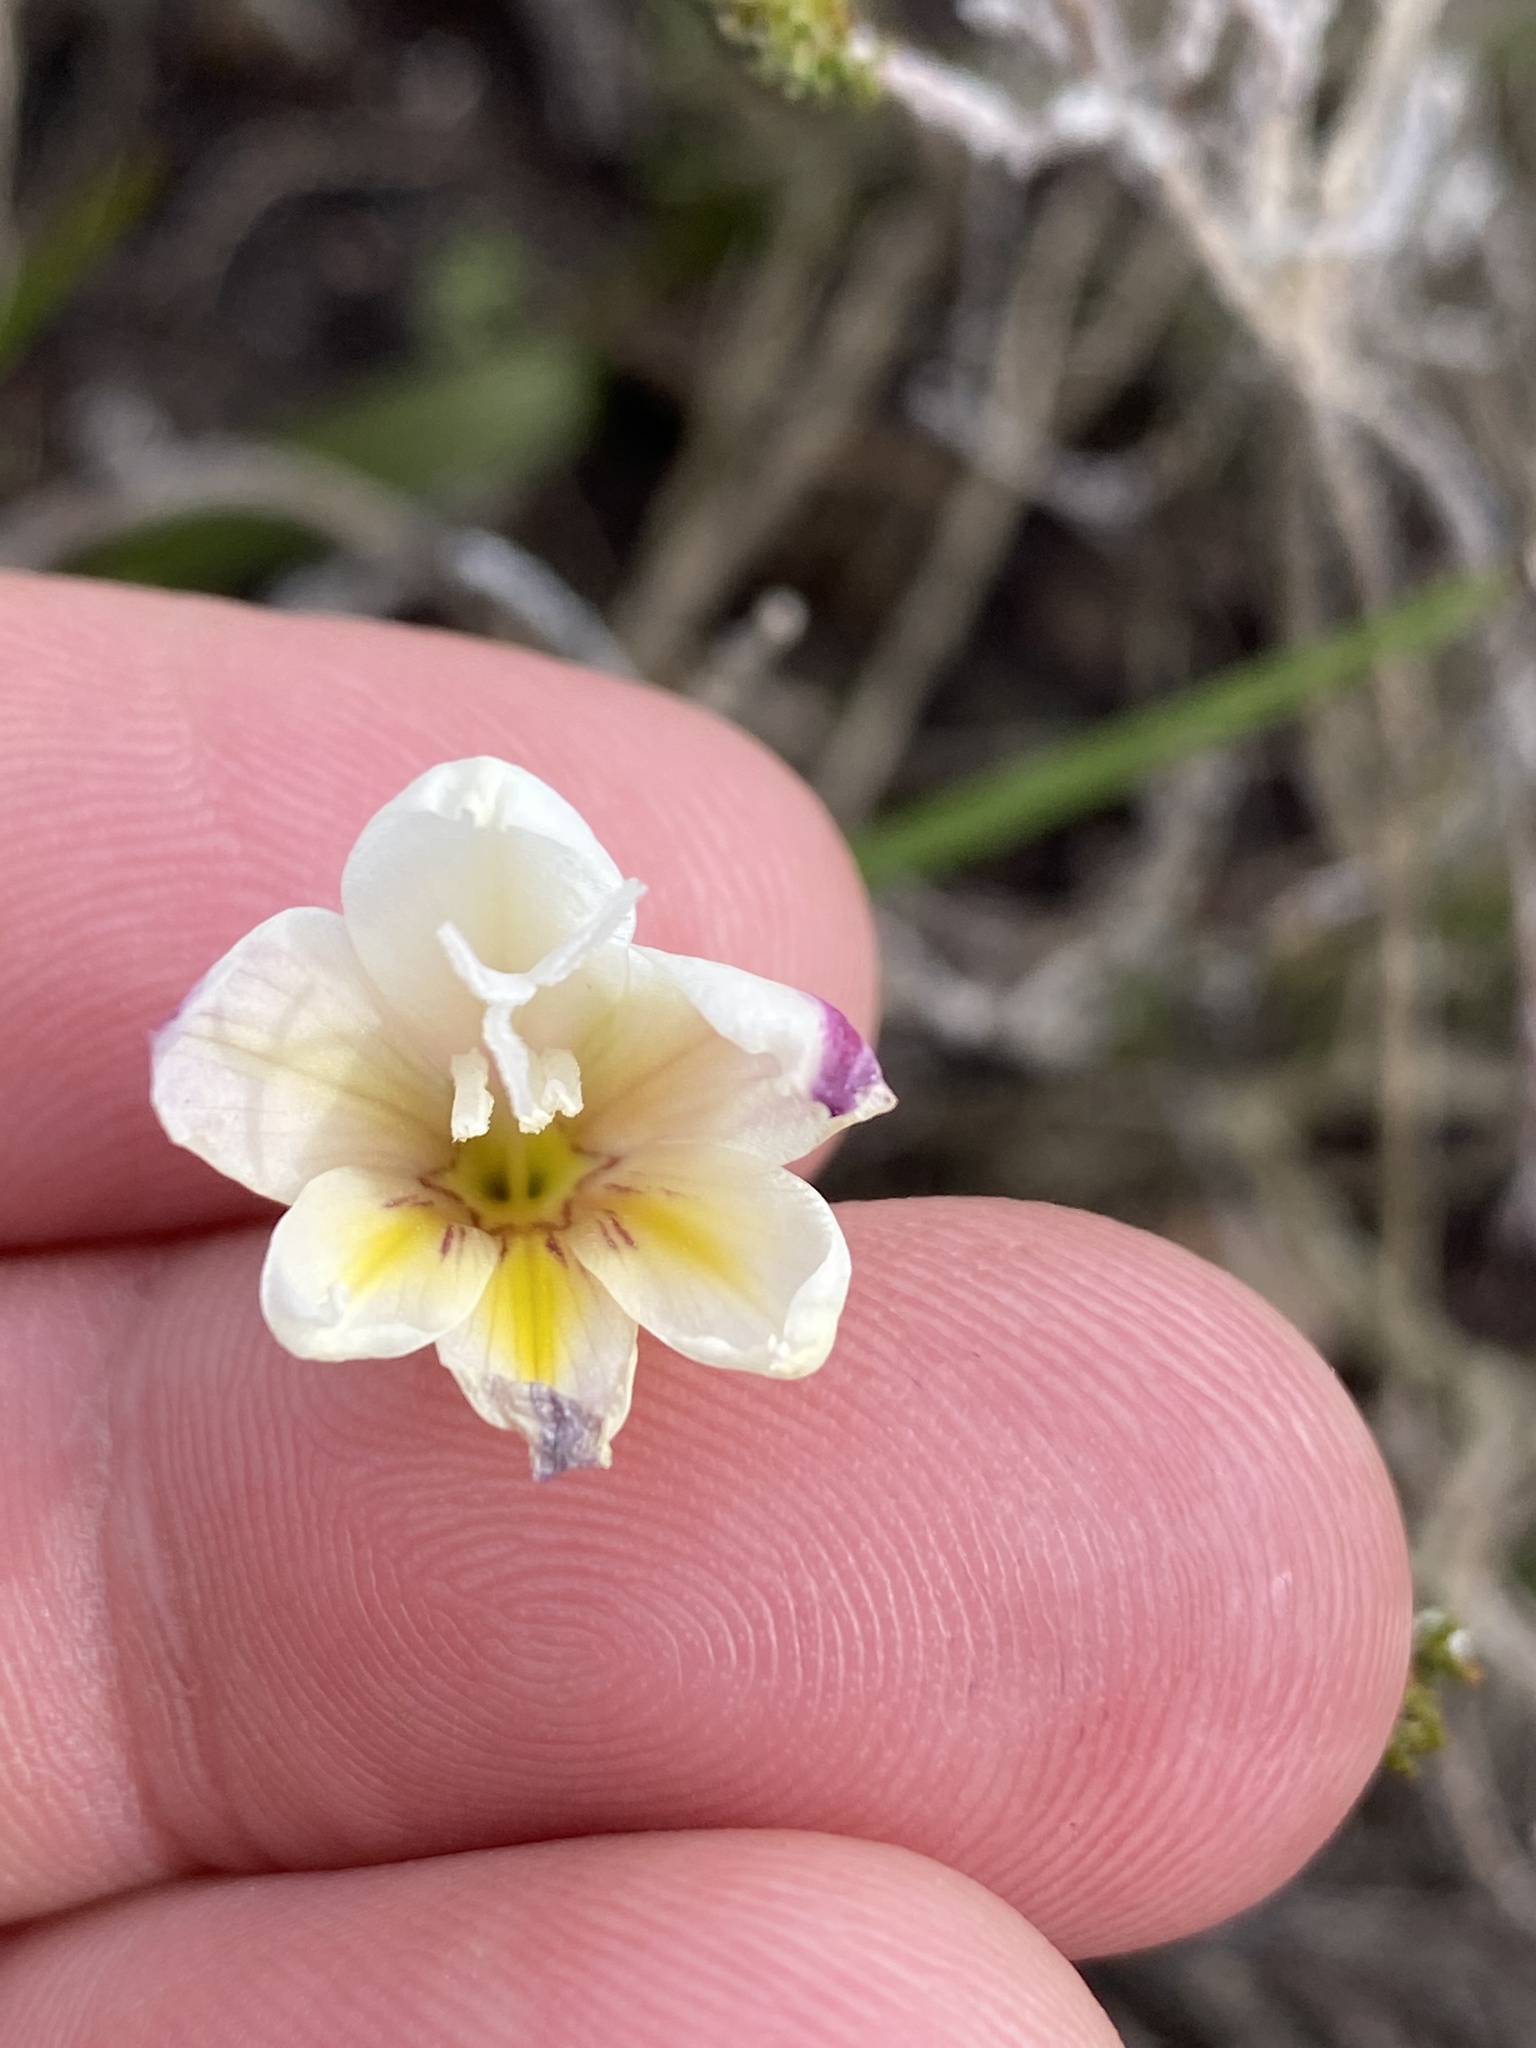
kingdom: Plantae
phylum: Tracheophyta
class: Liliopsida
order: Asparagales
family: Iridaceae
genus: Gladiolus
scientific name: Gladiolus trichonemifolius
